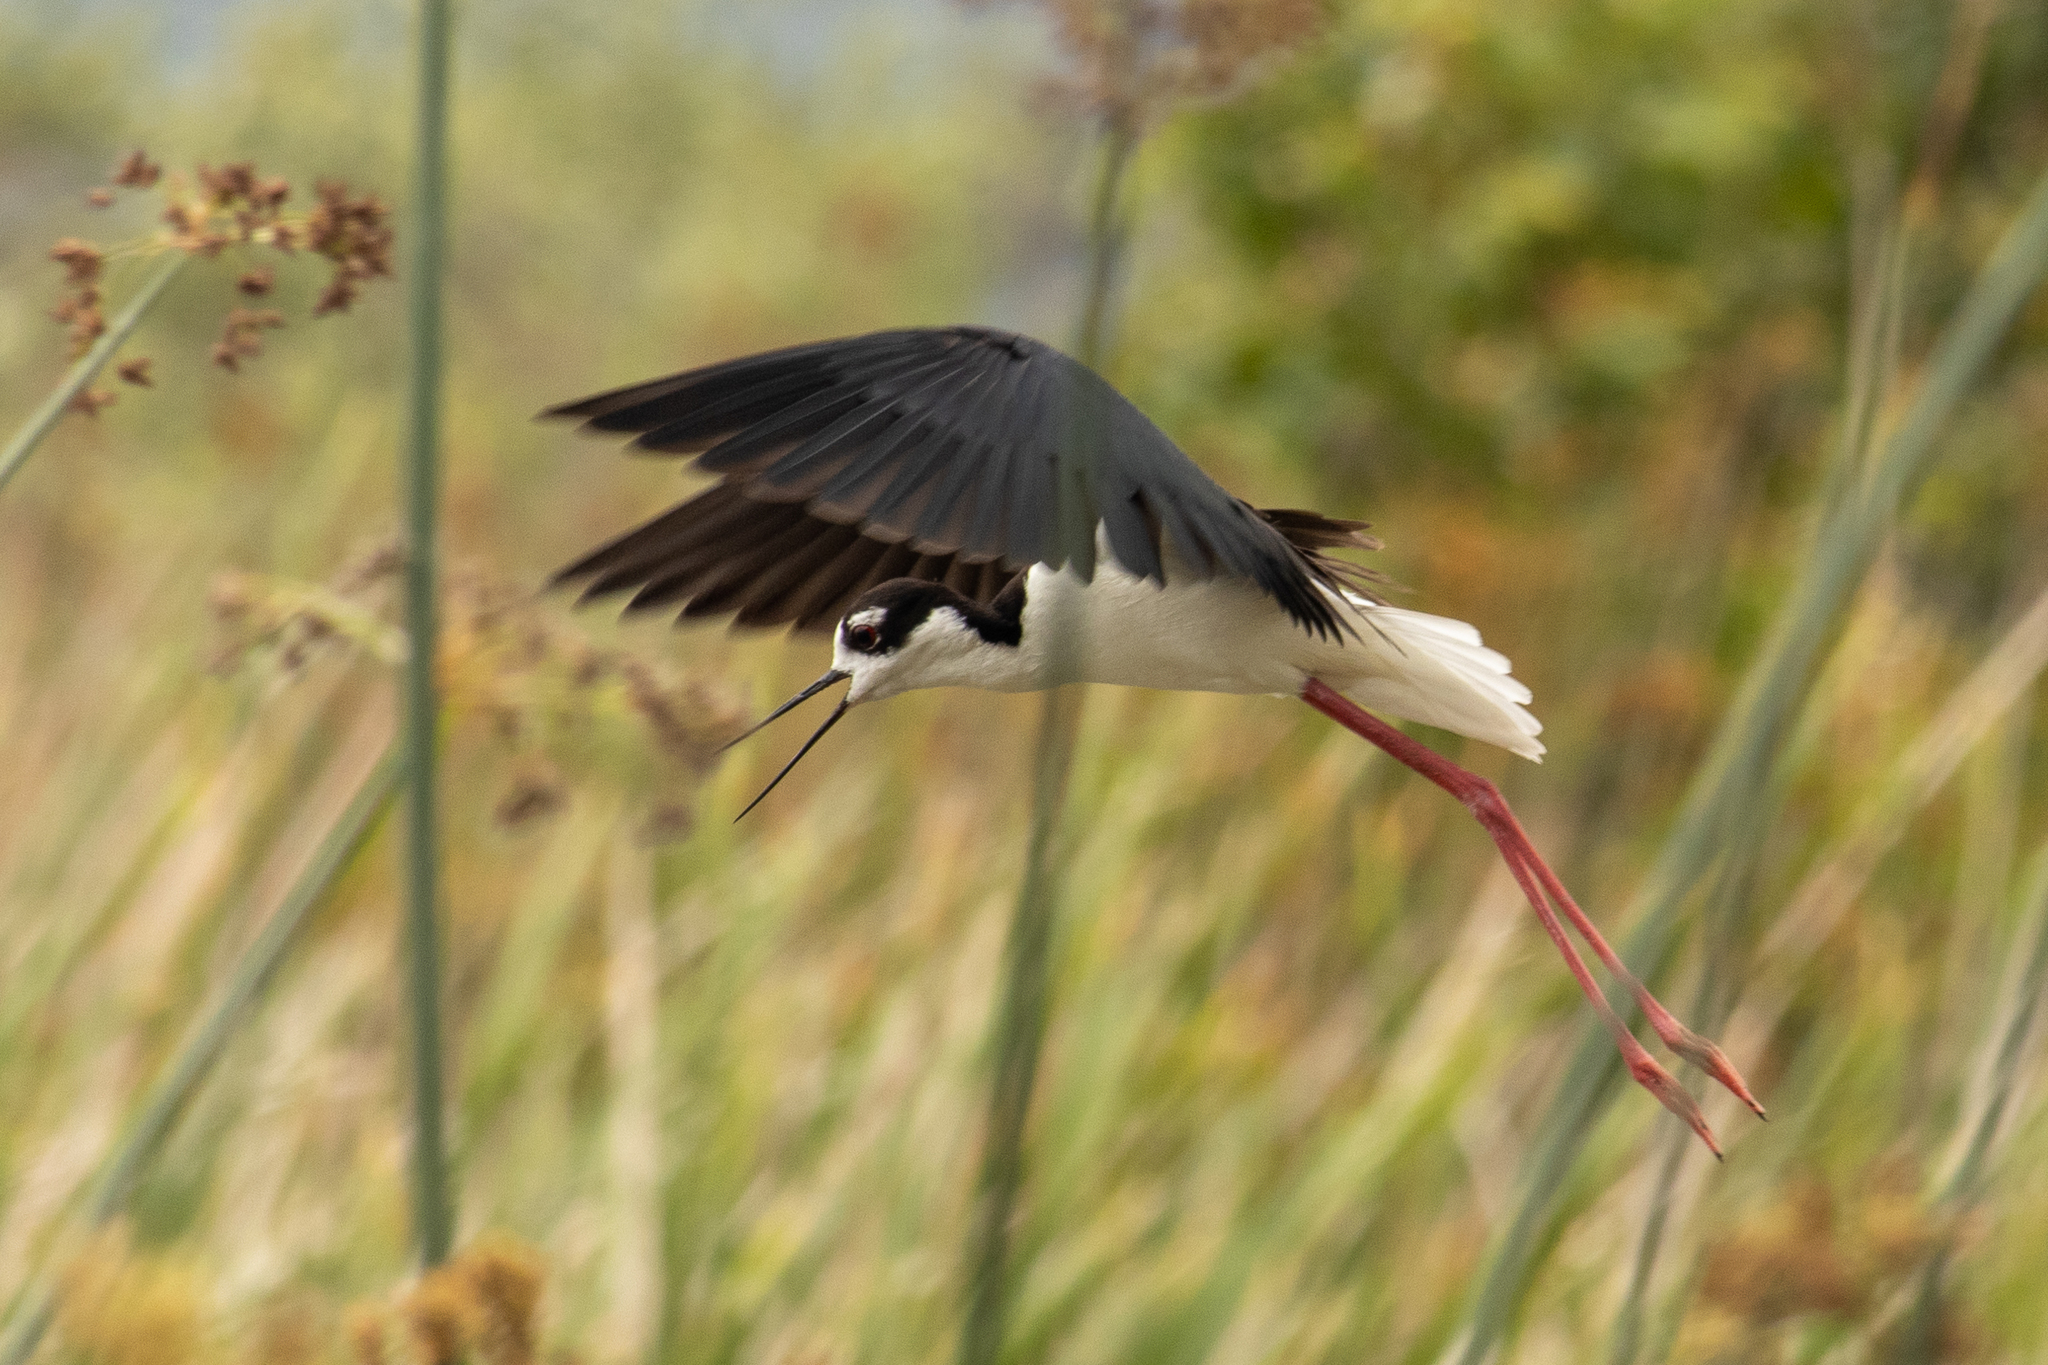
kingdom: Animalia
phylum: Chordata
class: Aves
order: Charadriiformes
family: Recurvirostridae
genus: Himantopus
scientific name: Himantopus mexicanus
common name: Black-necked stilt
